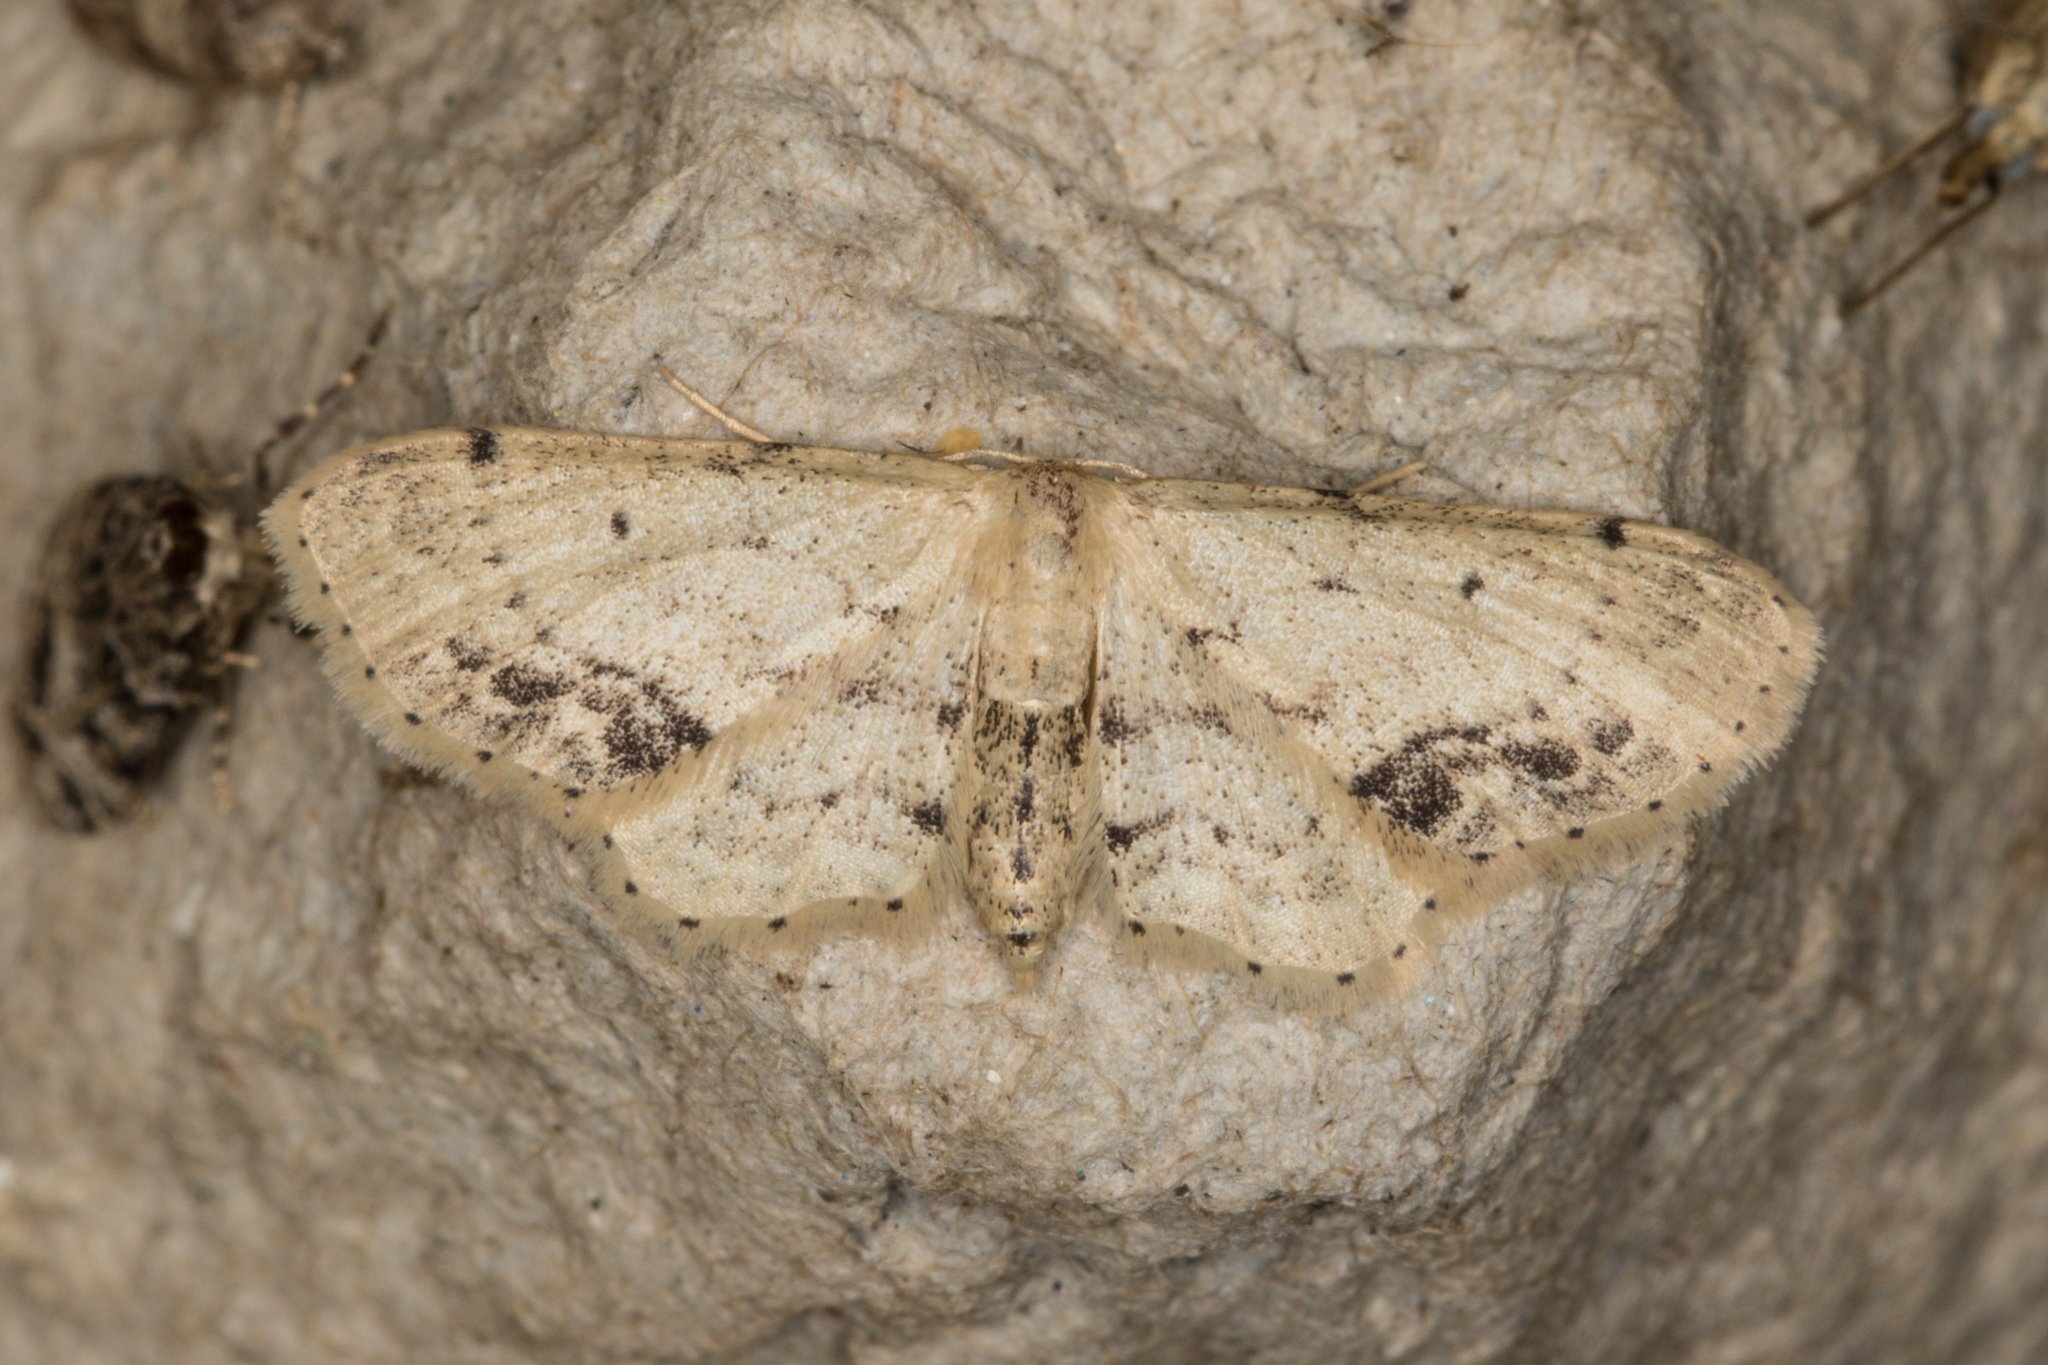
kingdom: Animalia
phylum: Arthropoda
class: Insecta
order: Lepidoptera
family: Geometridae
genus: Idaea
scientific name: Idaea dimidiata
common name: Single-dotted wave
